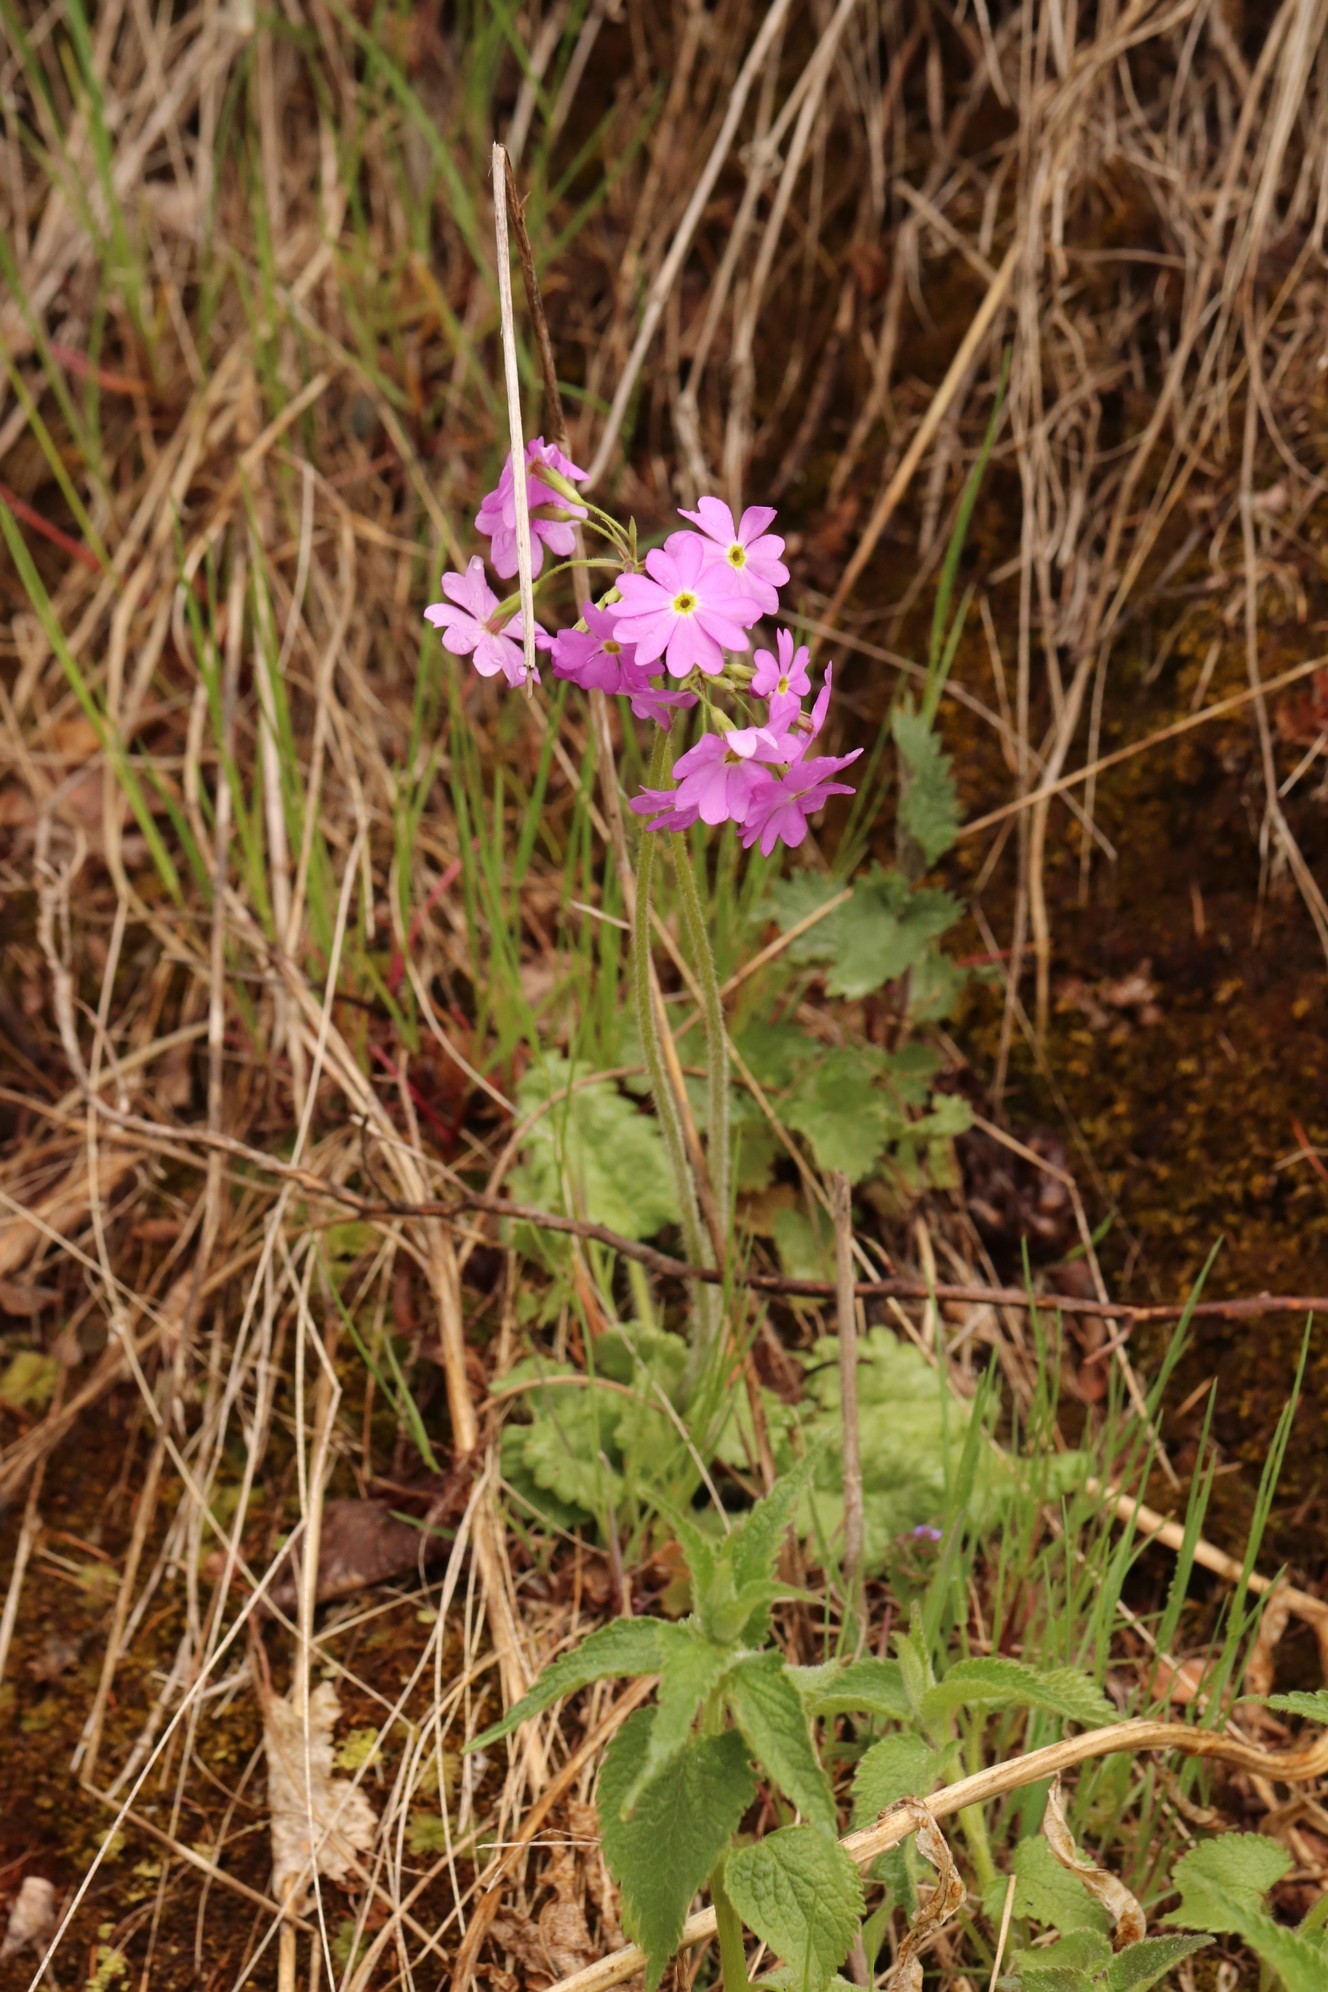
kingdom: Plantae
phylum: Tracheophyta
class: Magnoliopsida
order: Ericales
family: Primulaceae
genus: Primula
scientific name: Primula cortusoides
